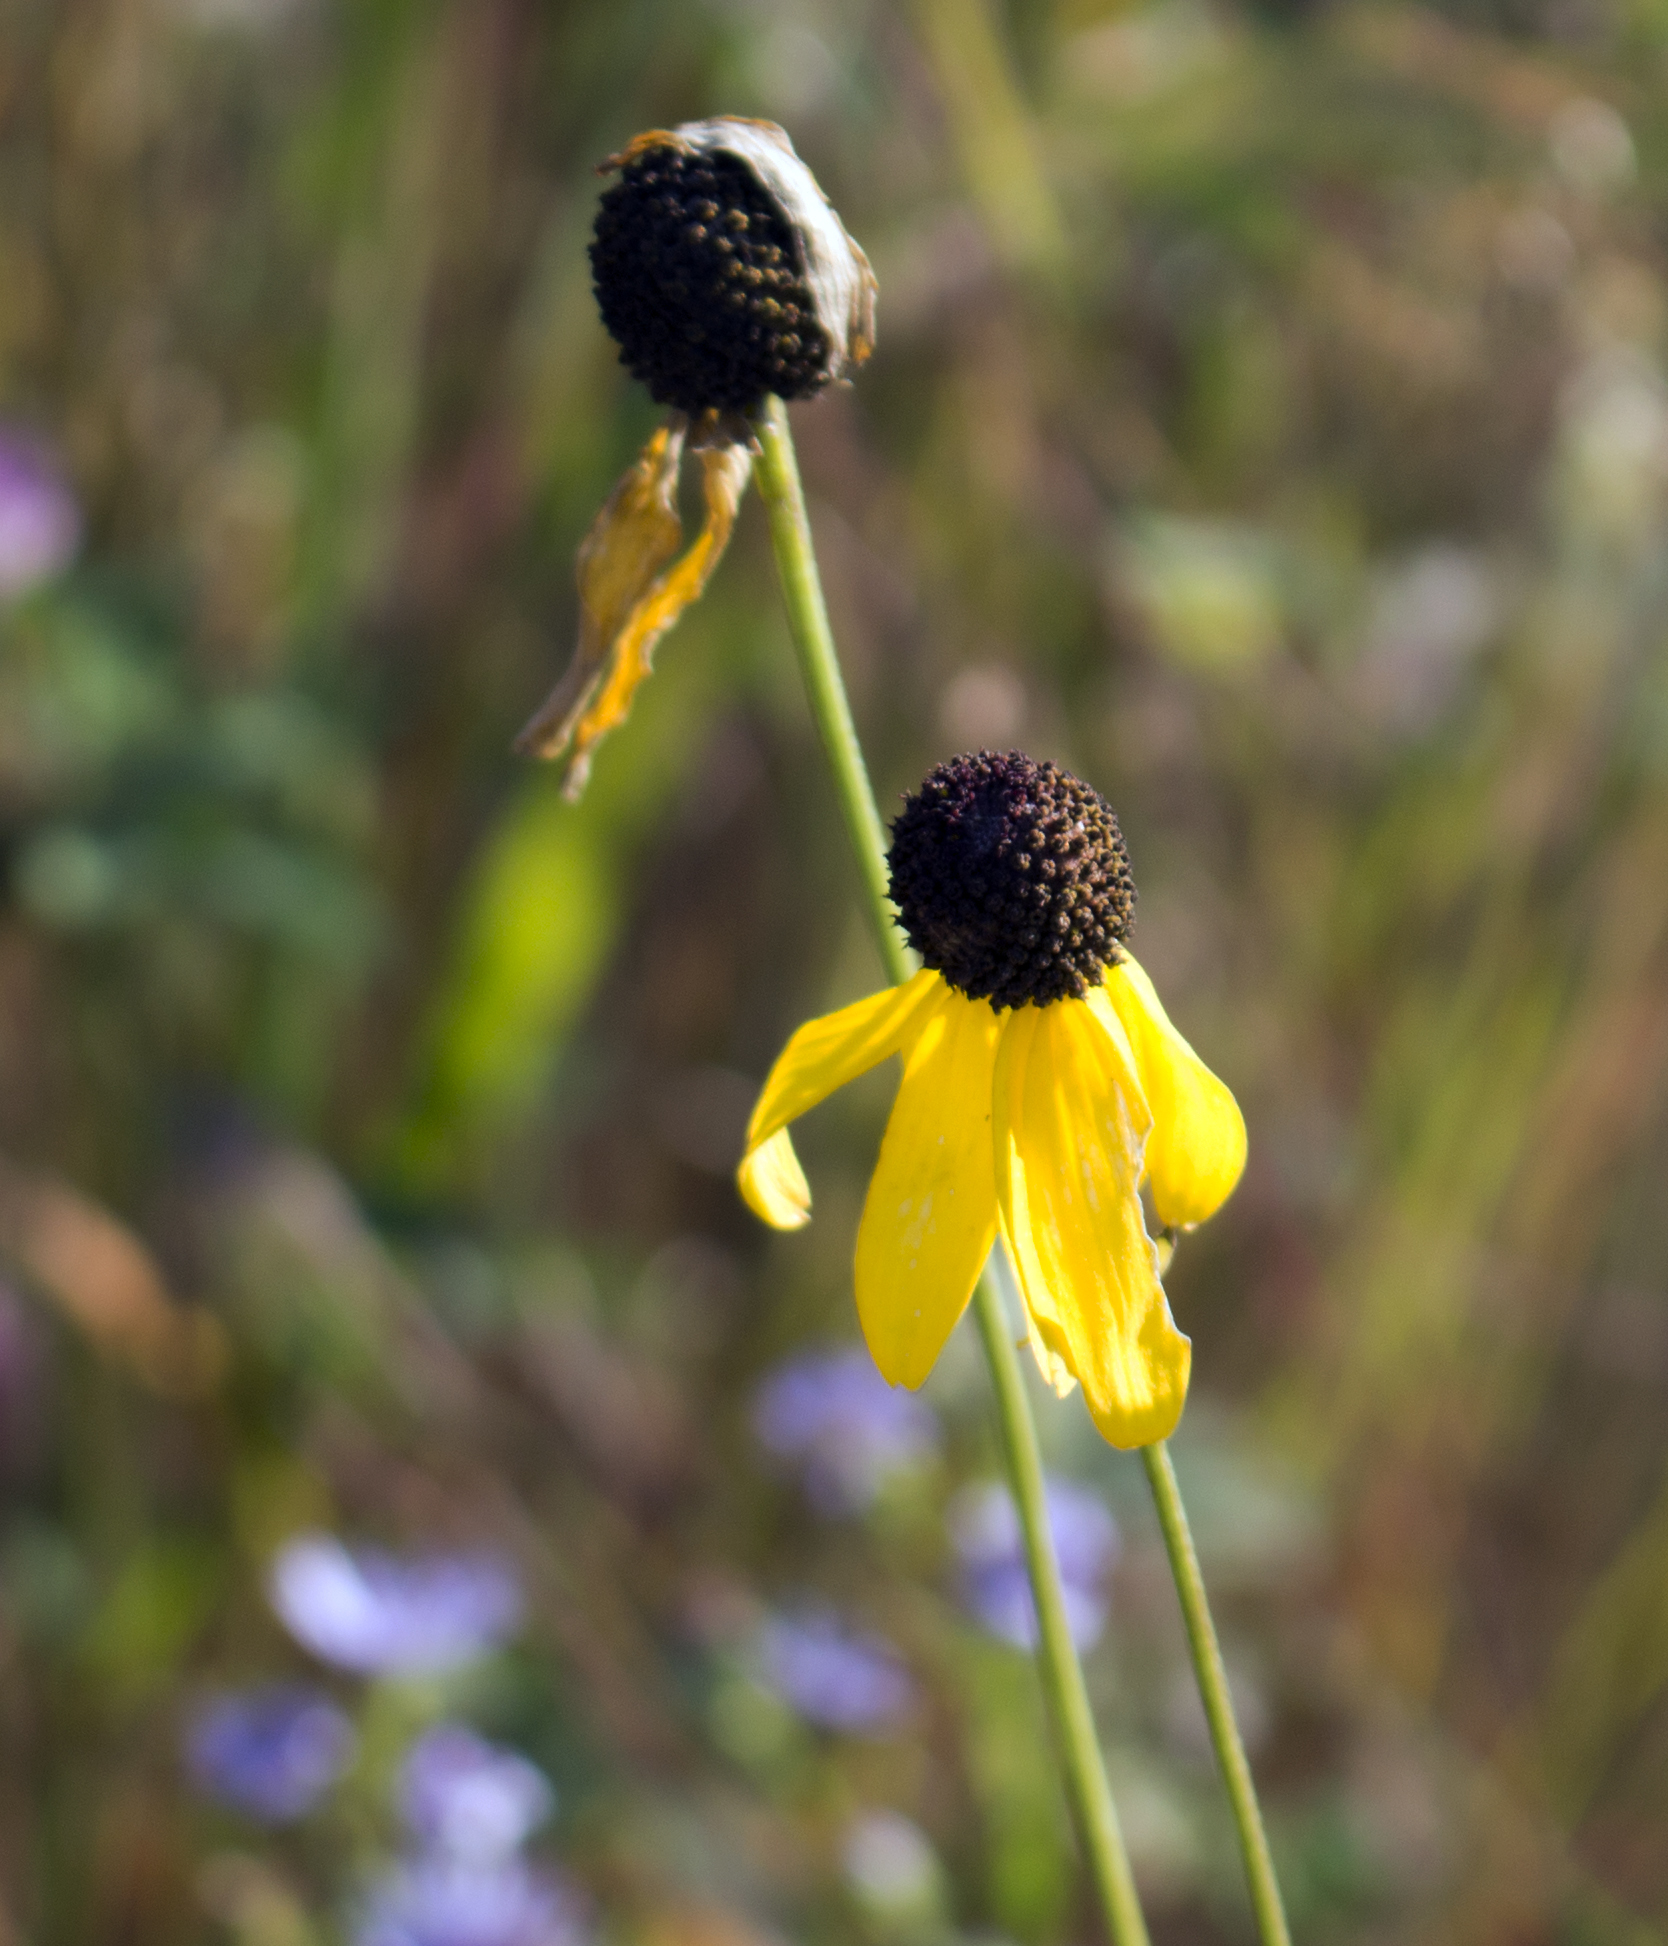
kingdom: Plantae
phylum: Tracheophyta
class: Magnoliopsida
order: Asterales
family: Asteraceae
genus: Ratibida
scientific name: Ratibida pinnata
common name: Drooping prairie-coneflower
